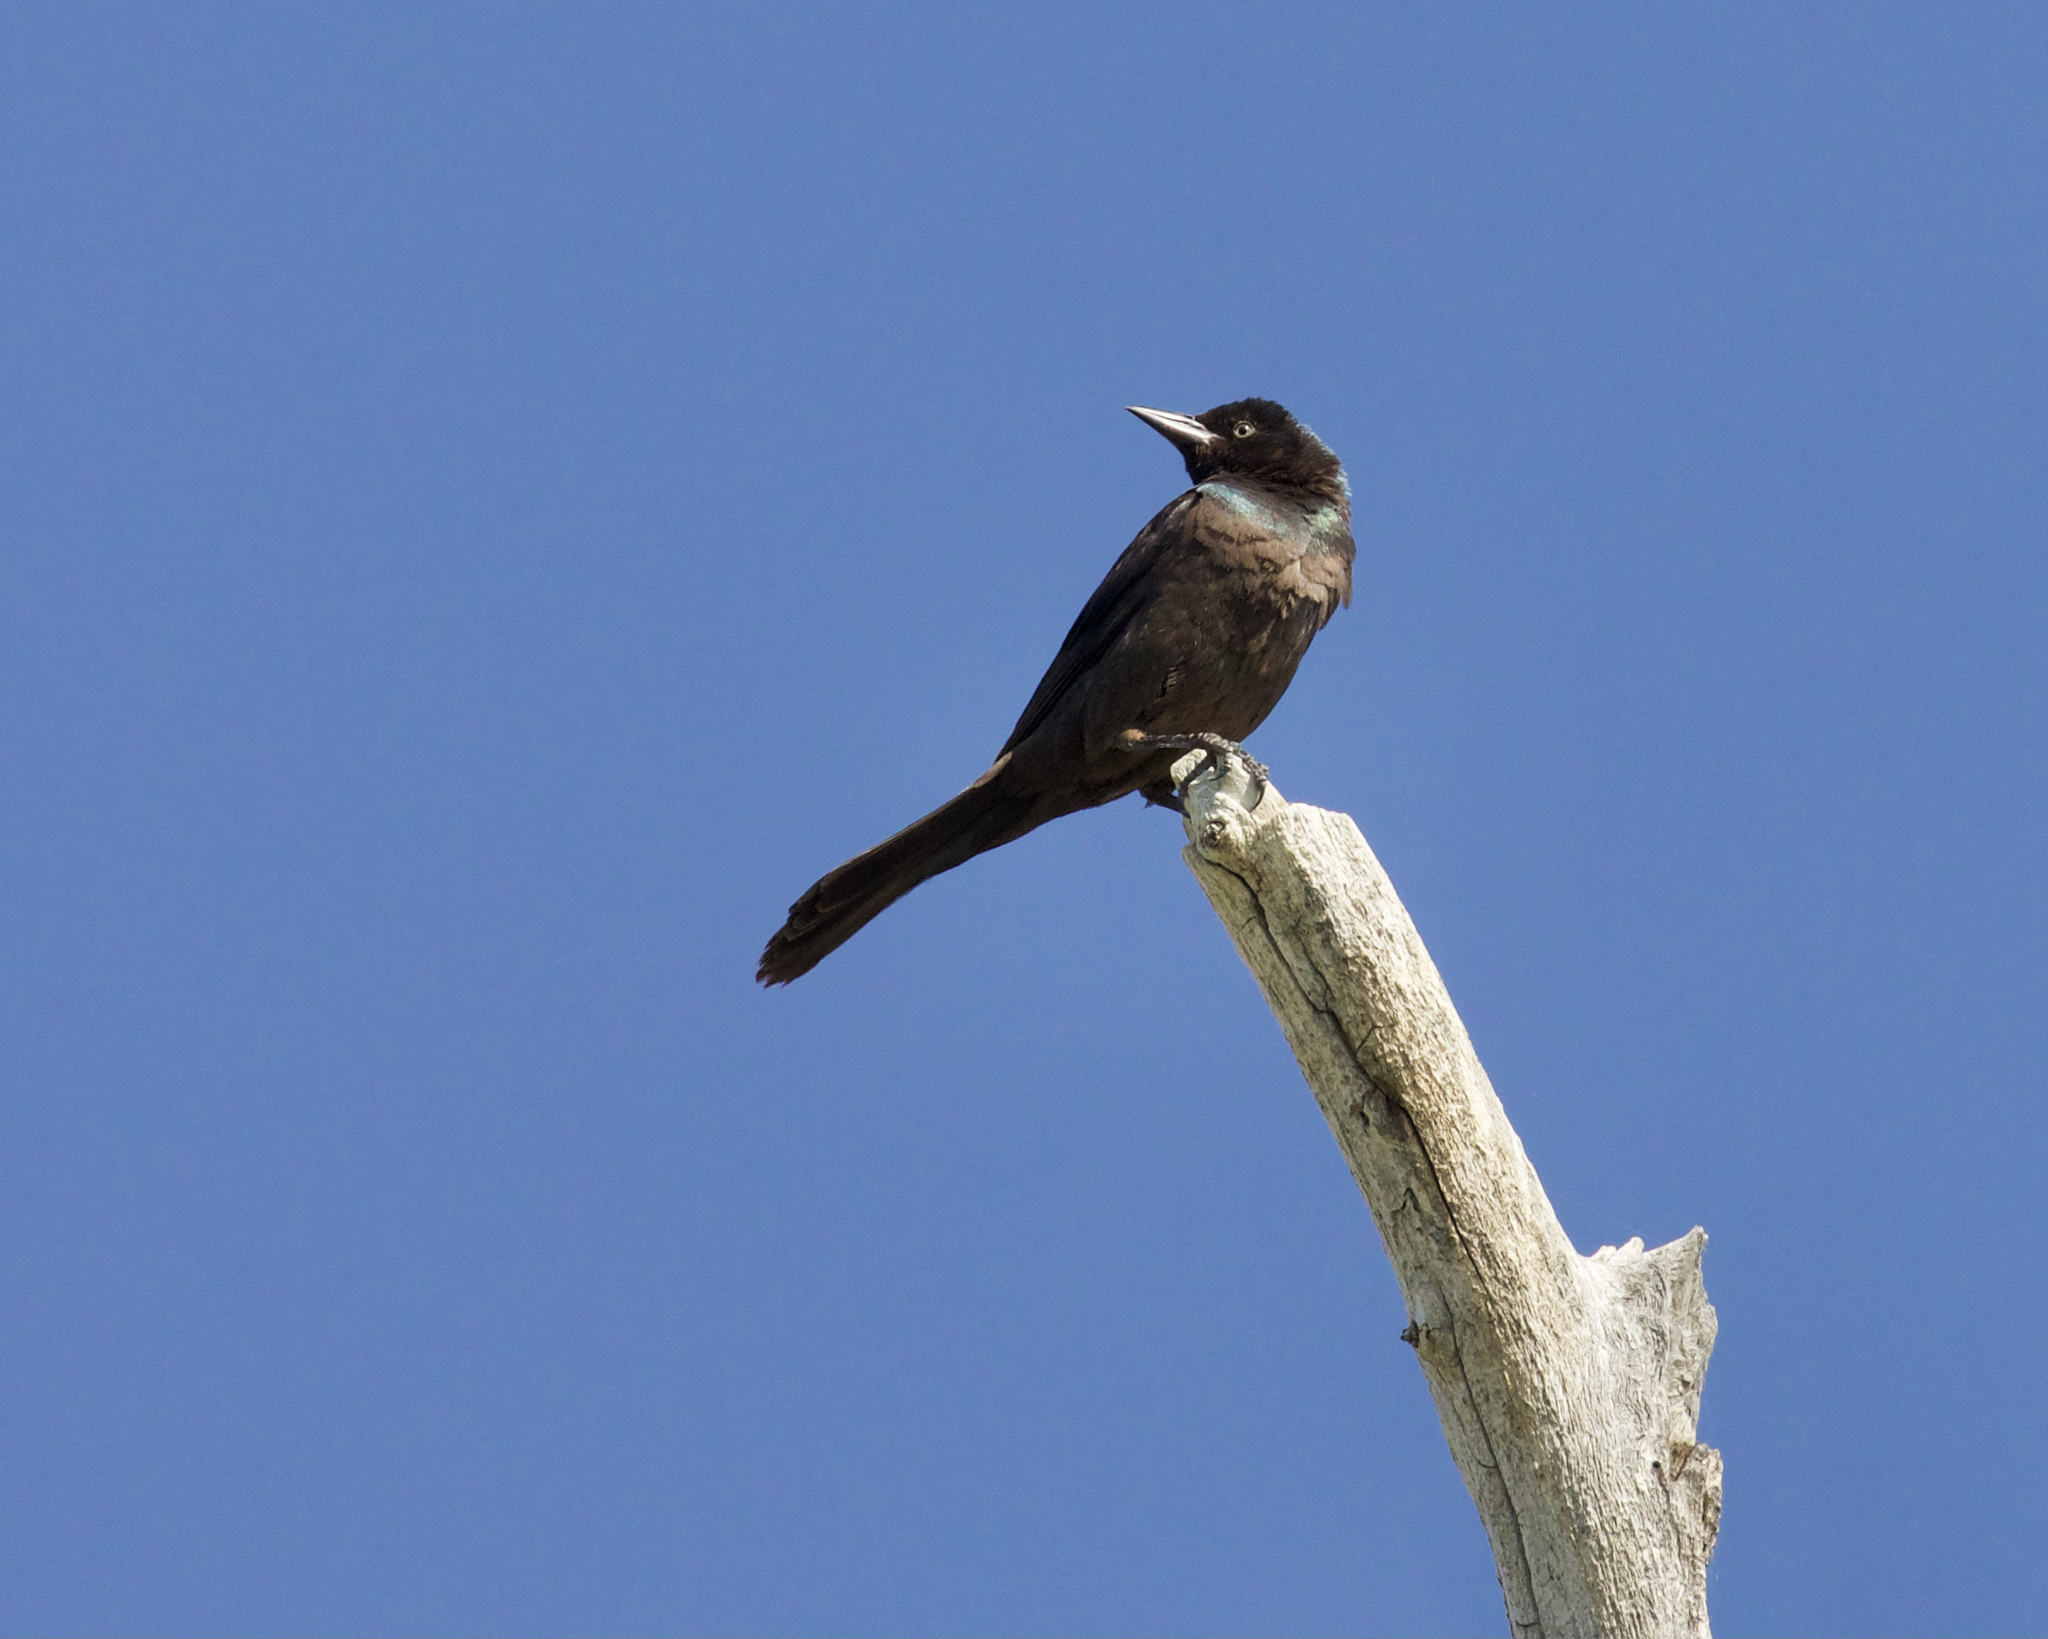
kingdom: Animalia
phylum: Chordata
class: Aves
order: Passeriformes
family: Icteridae
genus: Quiscalus
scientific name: Quiscalus quiscula
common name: Common grackle
